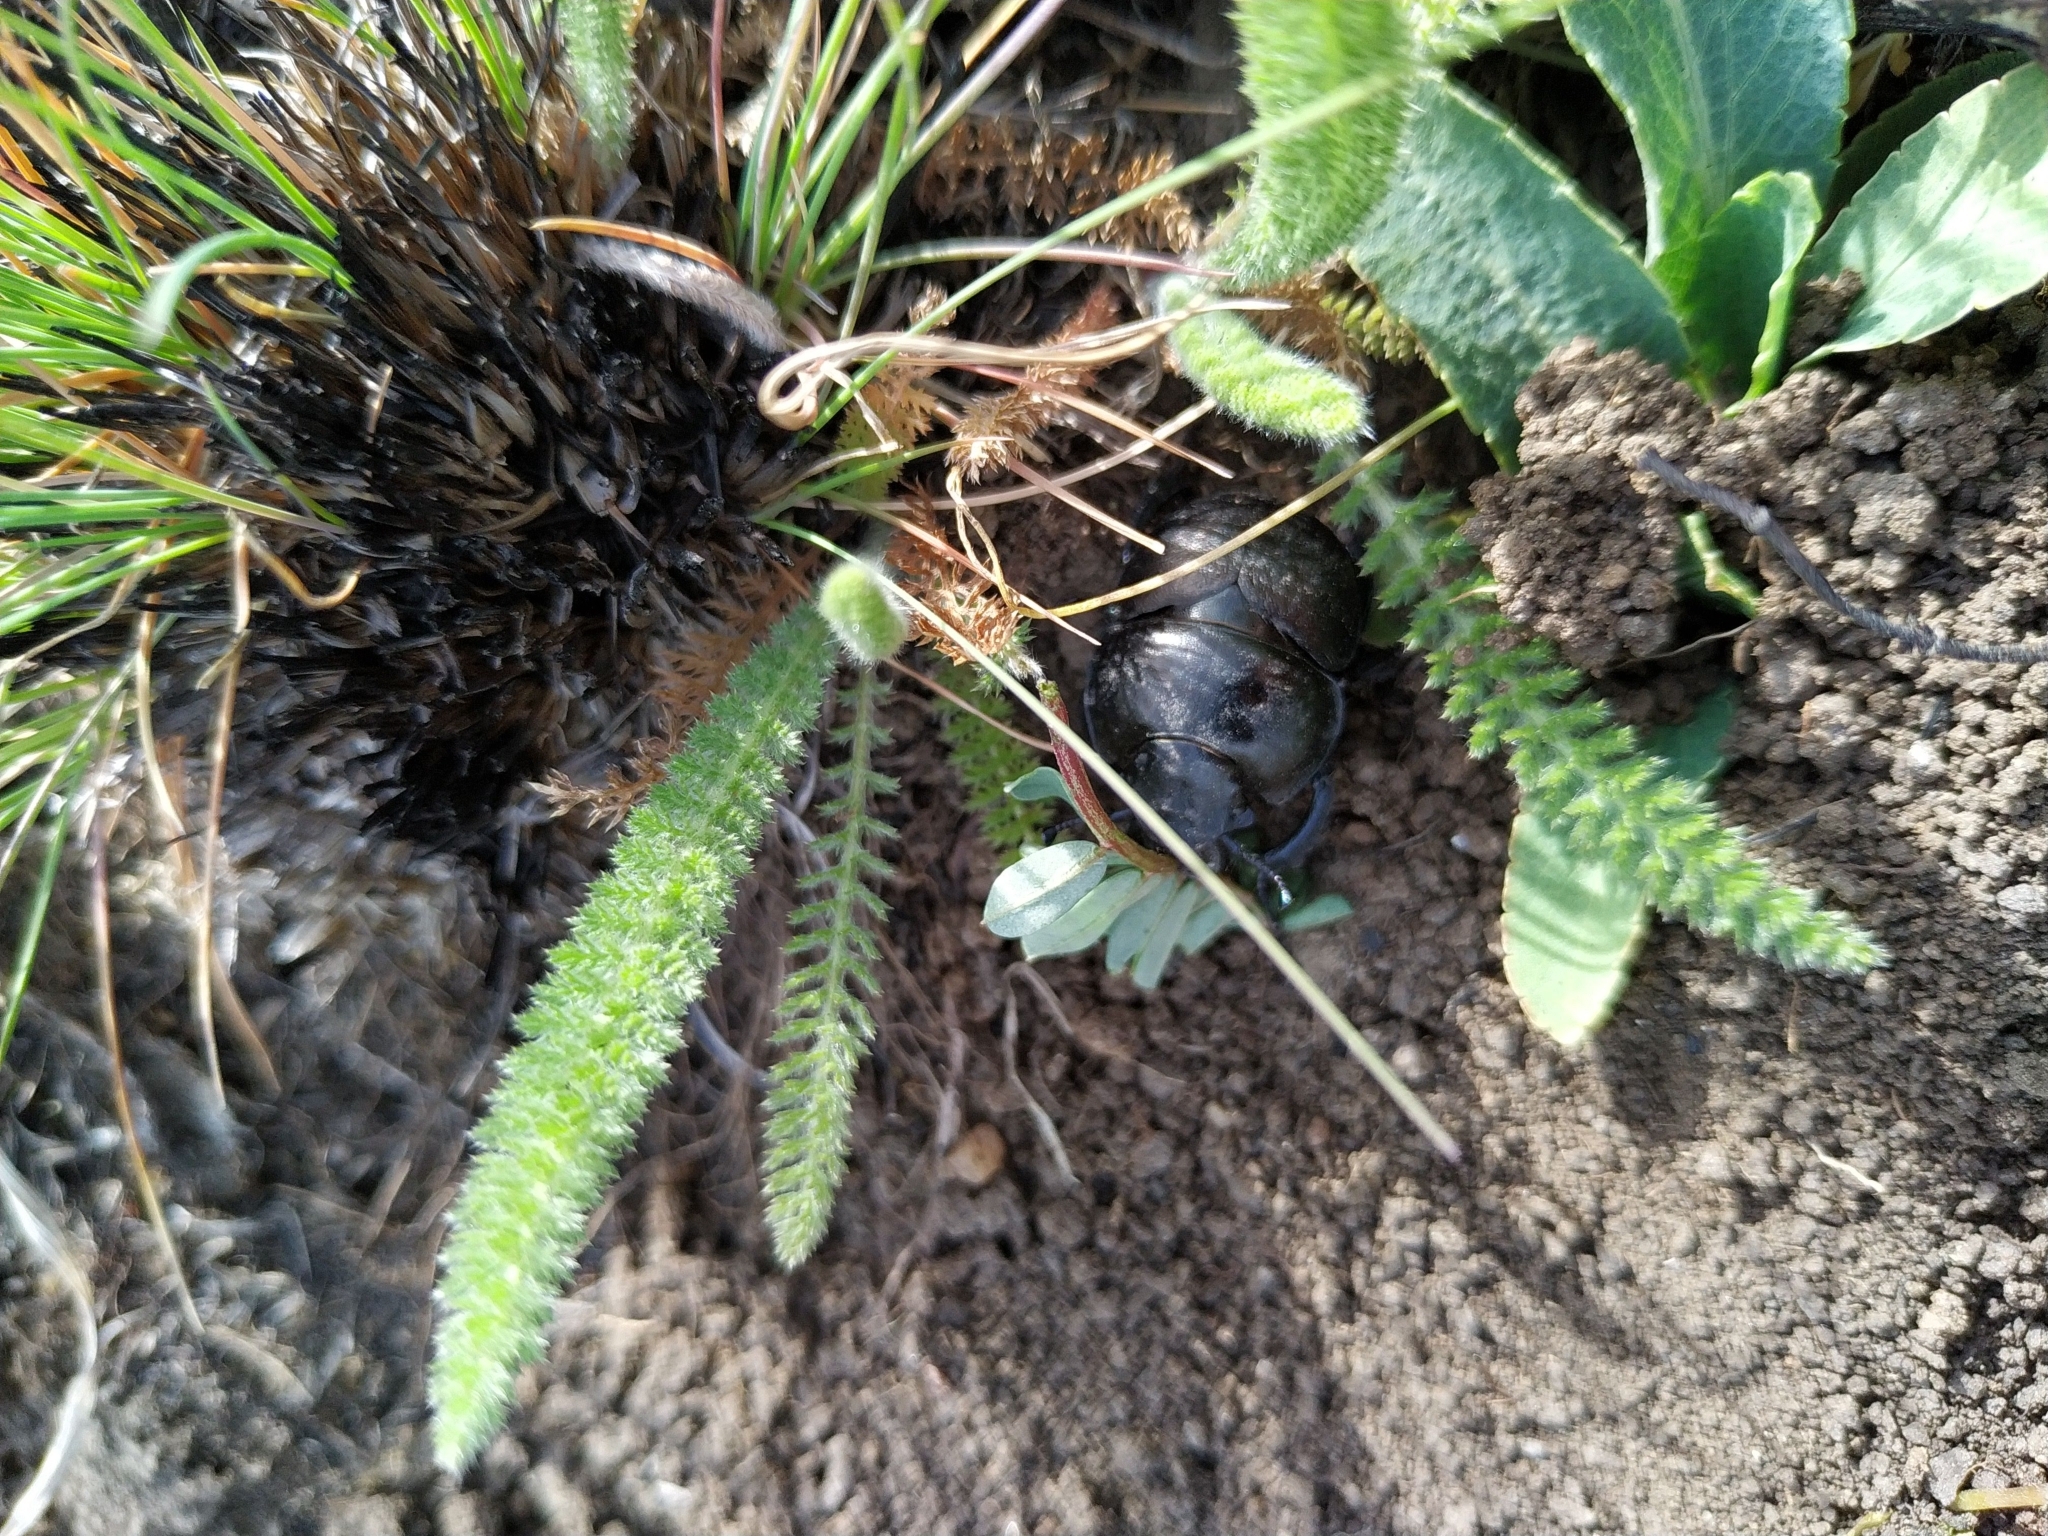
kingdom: Animalia
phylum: Arthropoda
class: Insecta
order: Coleoptera
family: Geotrupidae
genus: Lethrus
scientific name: Lethrus apterus
